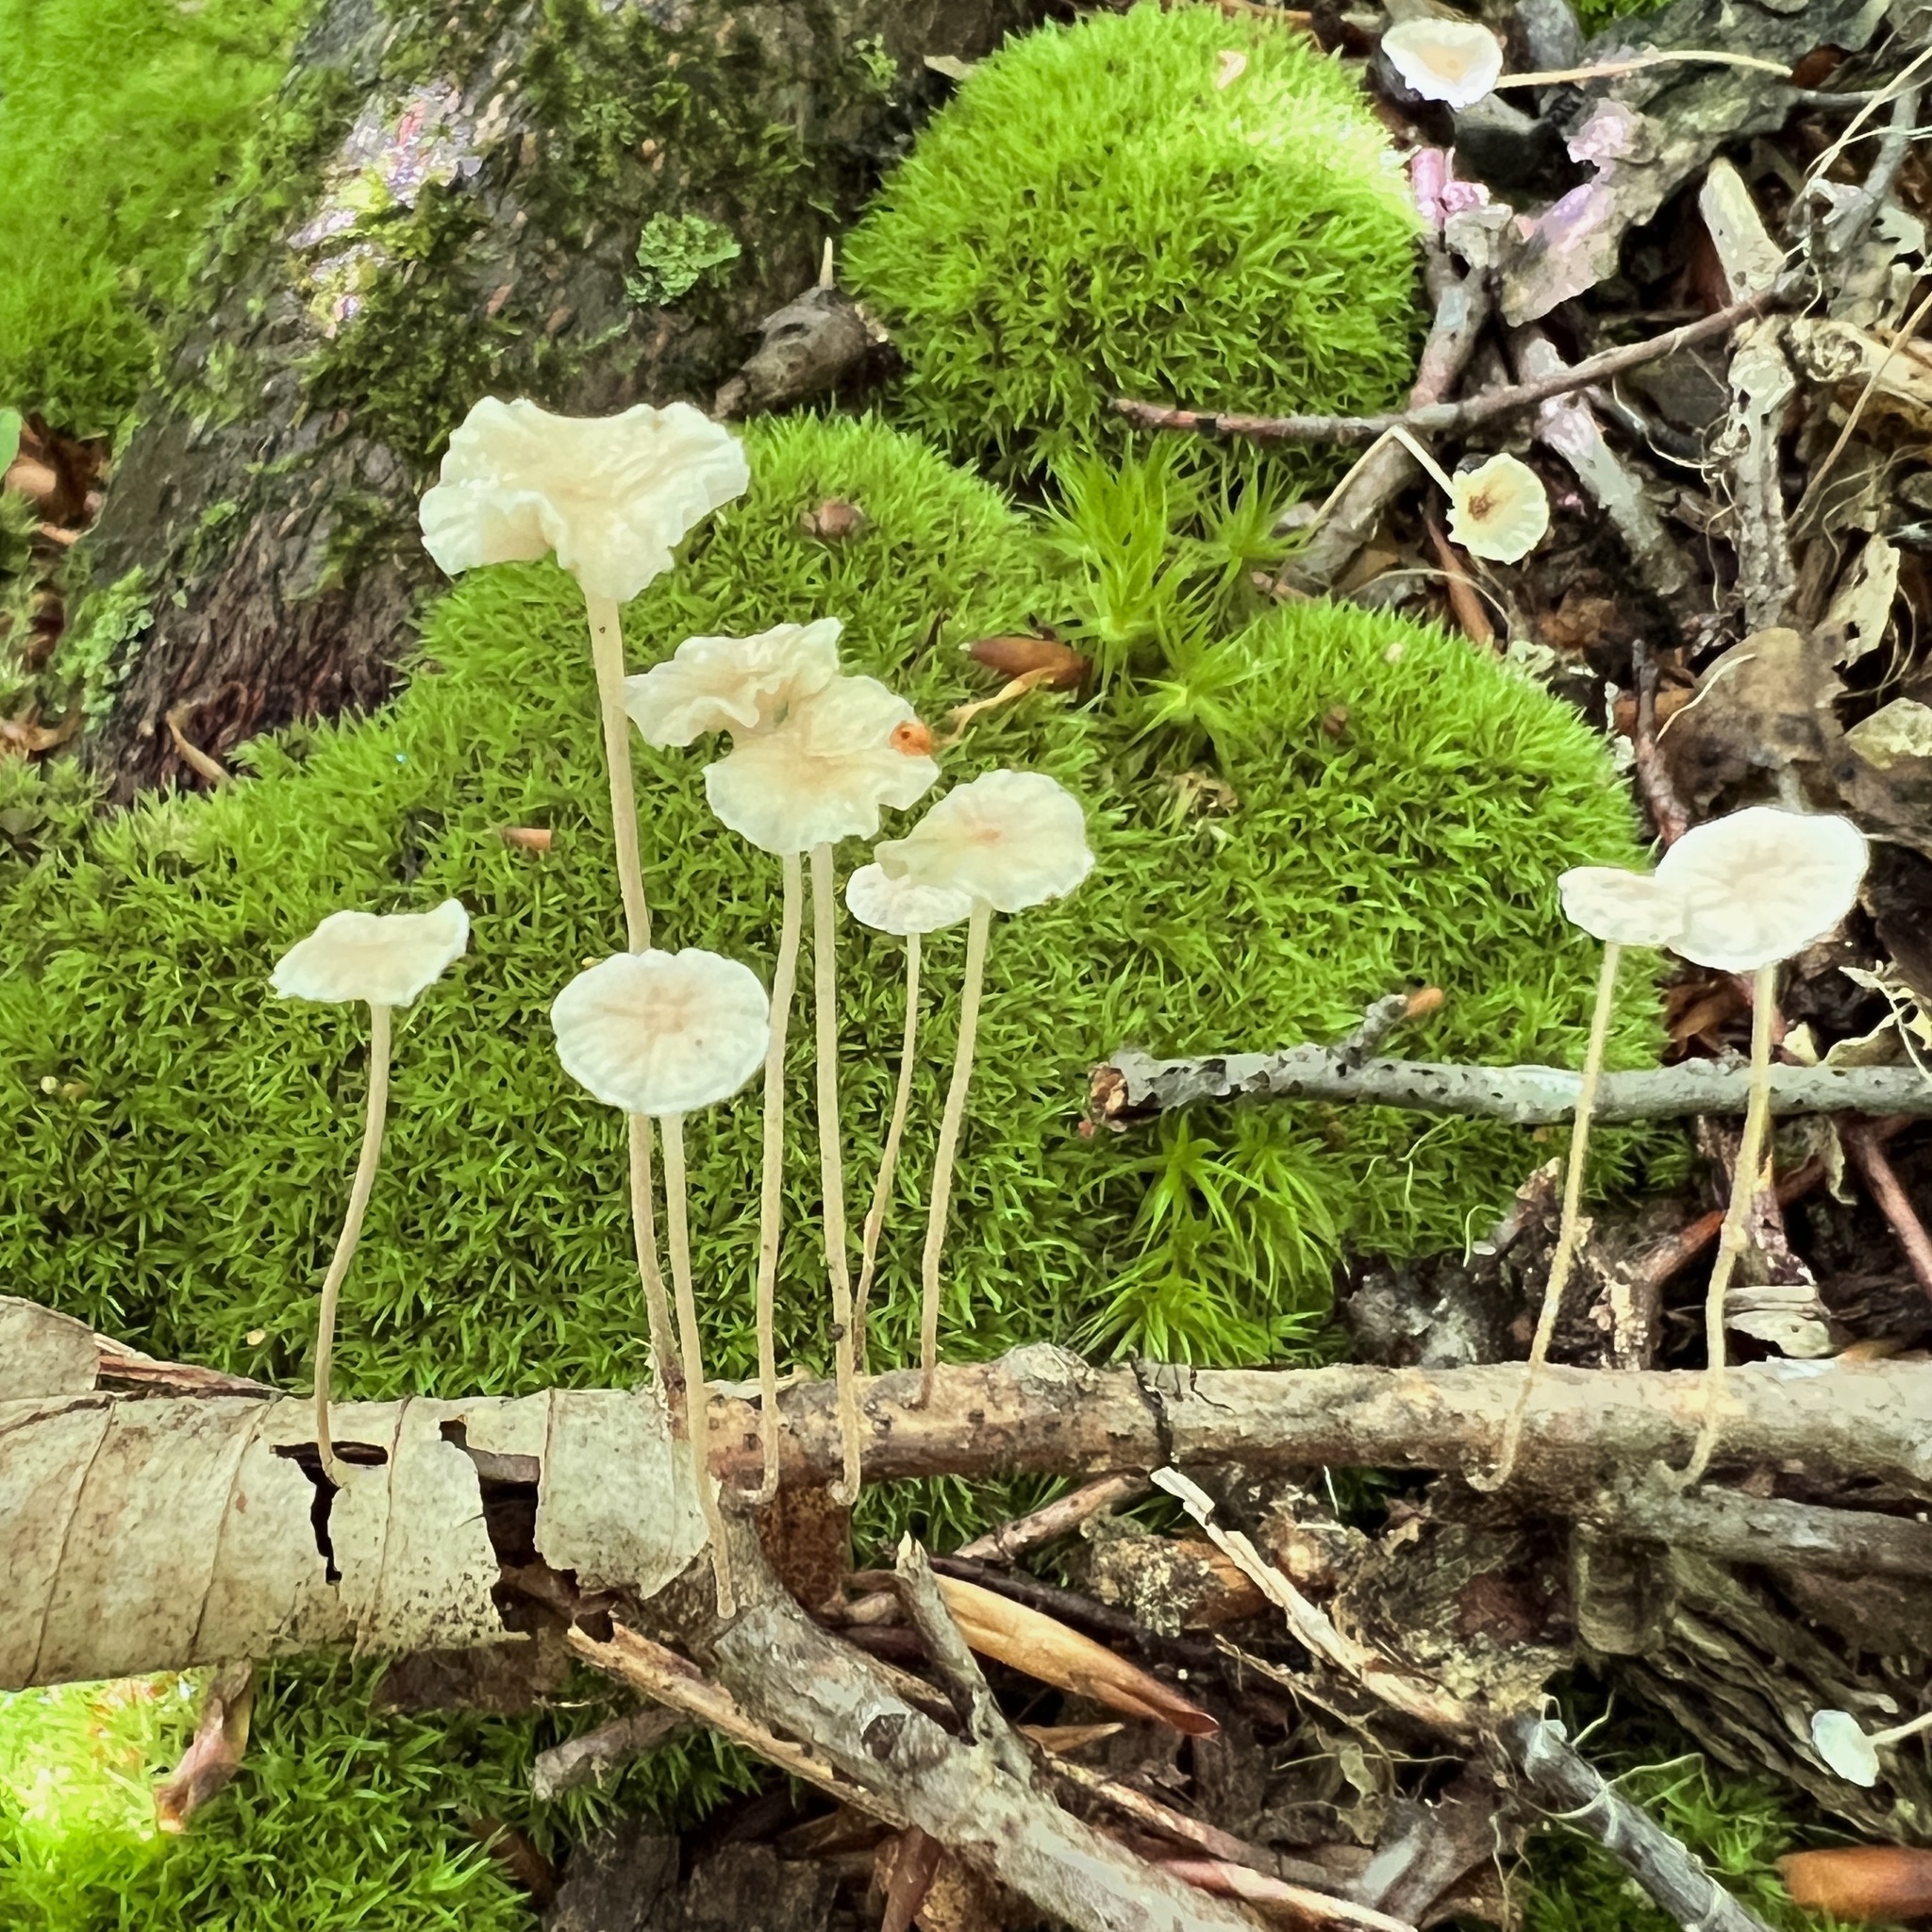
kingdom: Fungi
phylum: Basidiomycota
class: Agaricomycetes
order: Agaricales
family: Omphalotaceae
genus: Mycetinis
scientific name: Mycetinis opacus
